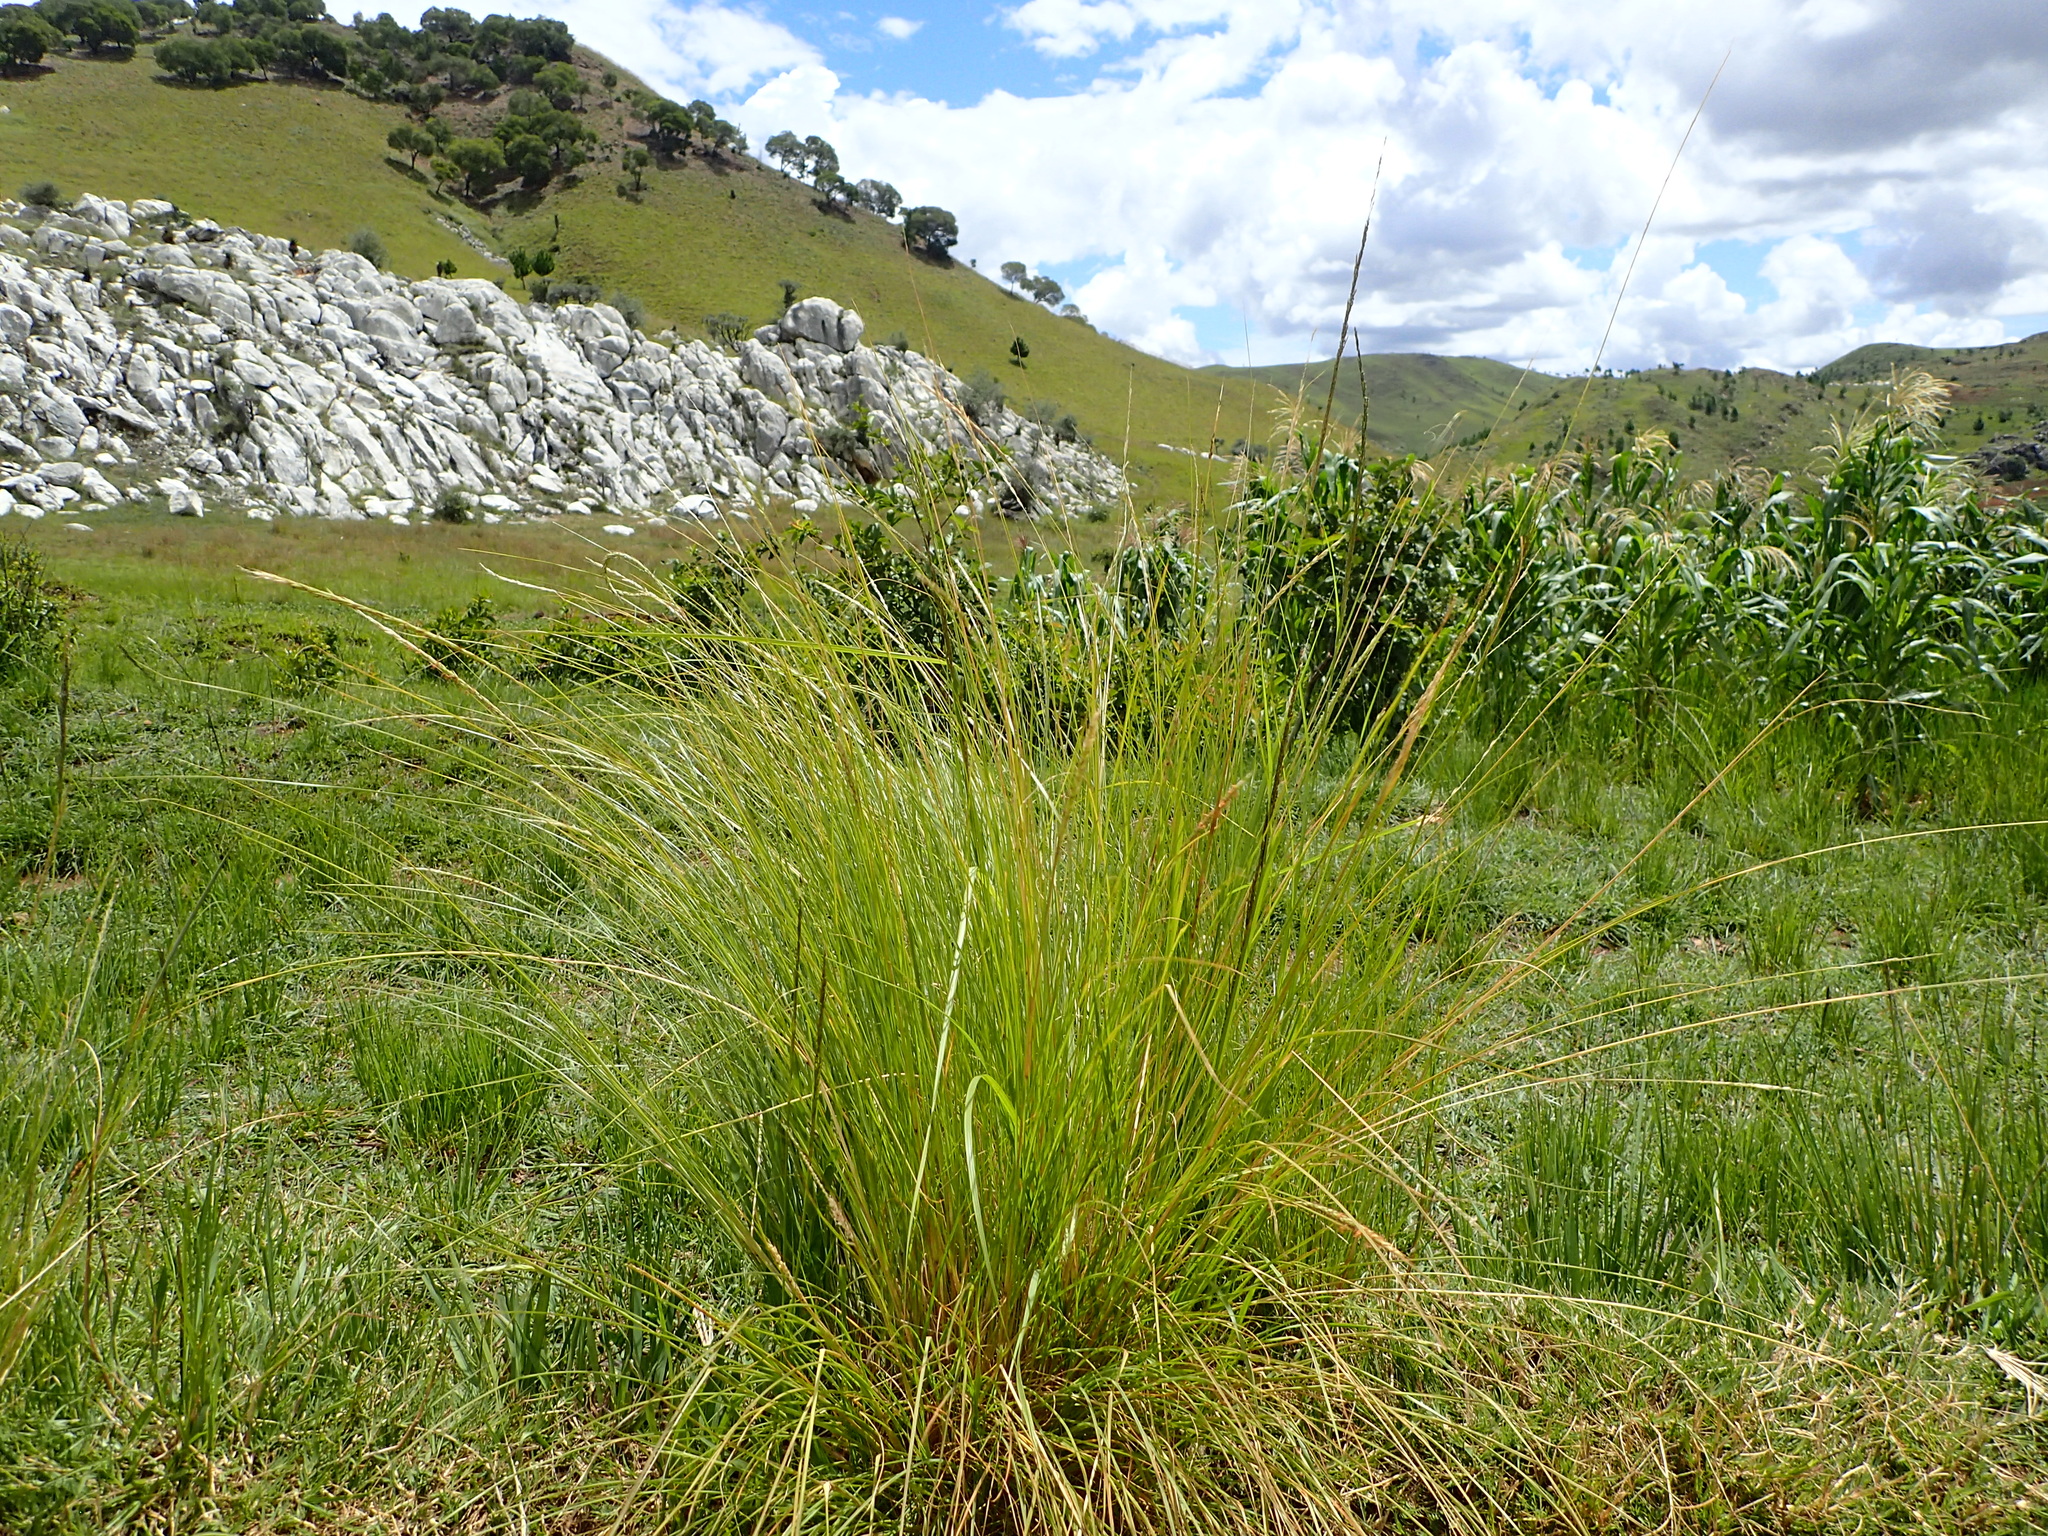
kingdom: Plantae
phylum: Tracheophyta
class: Liliopsida
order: Poales
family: Poaceae
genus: Cenchrus
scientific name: Cenchrus pseudotriticoides
